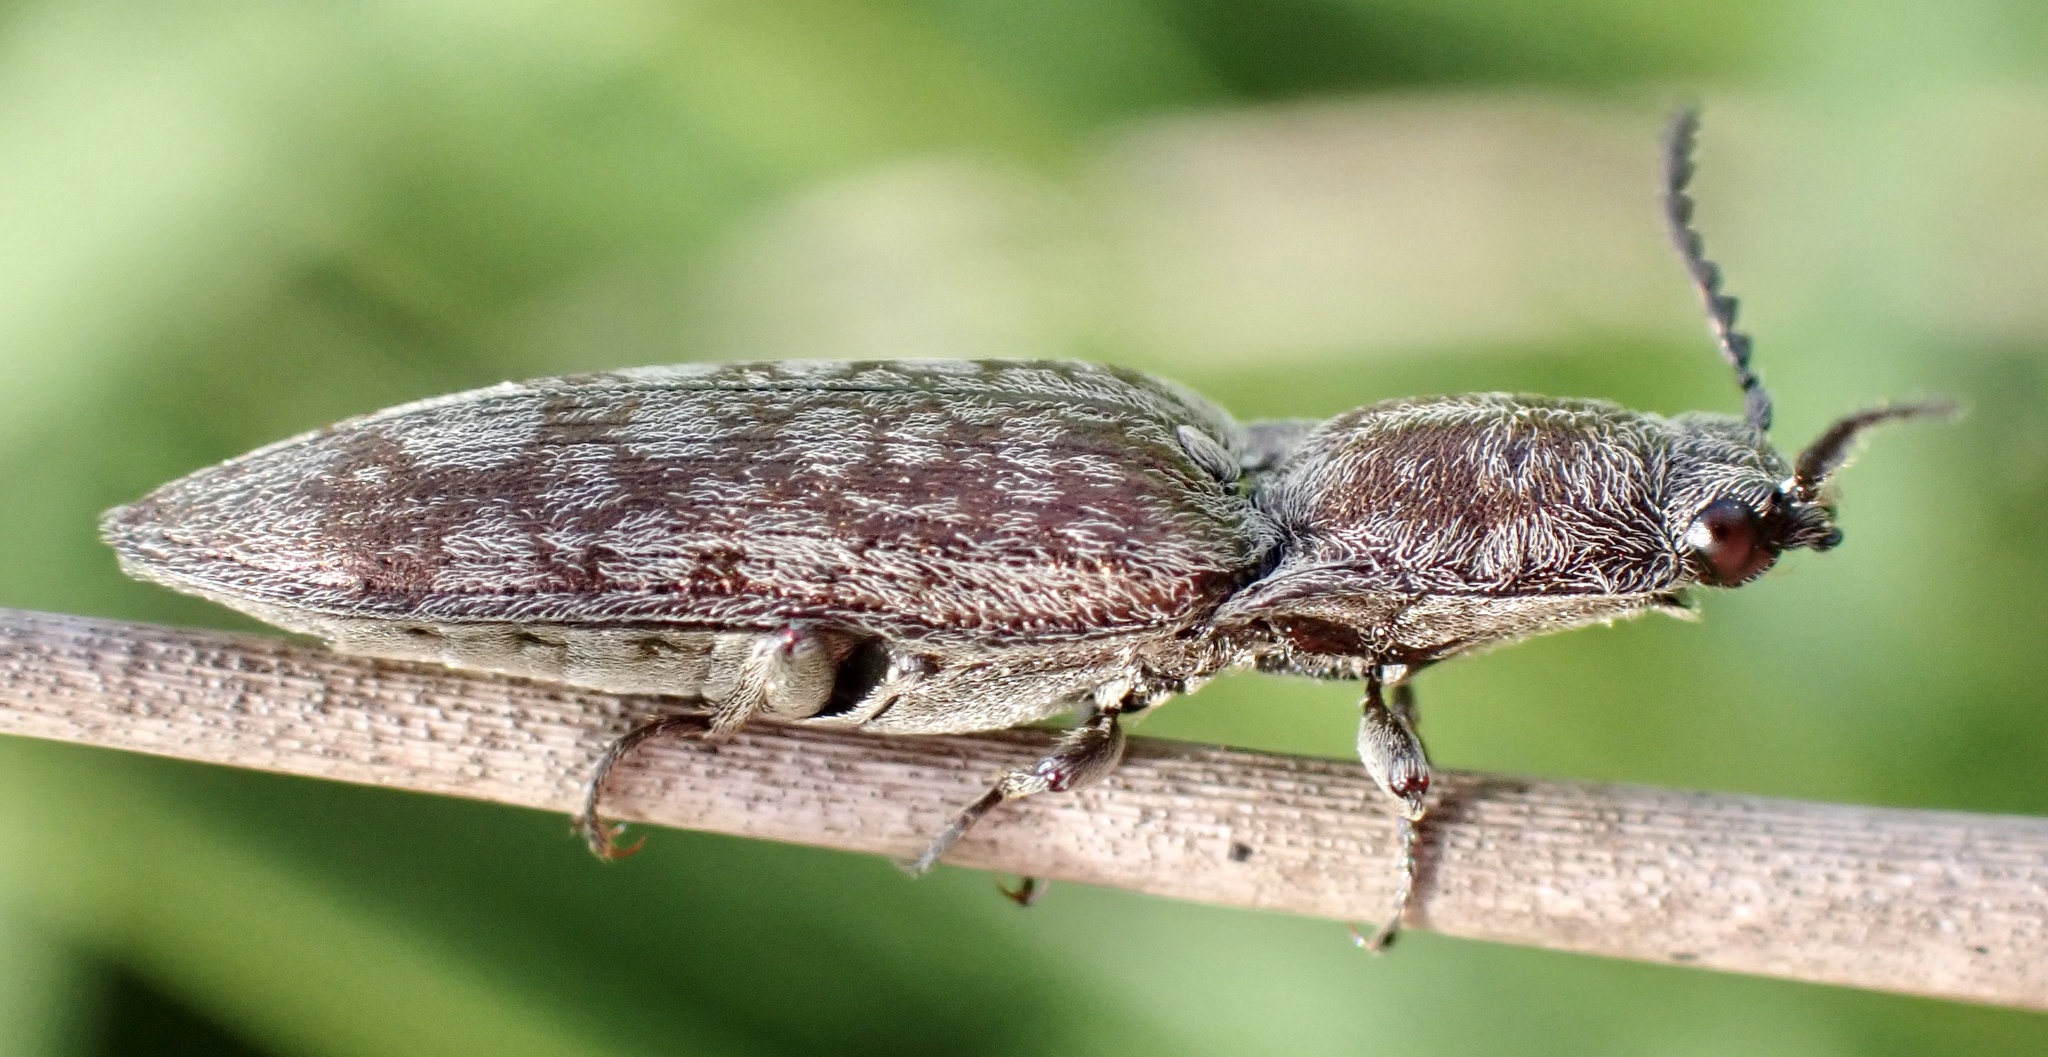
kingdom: Animalia
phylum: Arthropoda
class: Insecta
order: Coleoptera
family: Elateridae
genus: Actenicerus
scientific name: Actenicerus sjaelandicus
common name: Marsh click beetle
